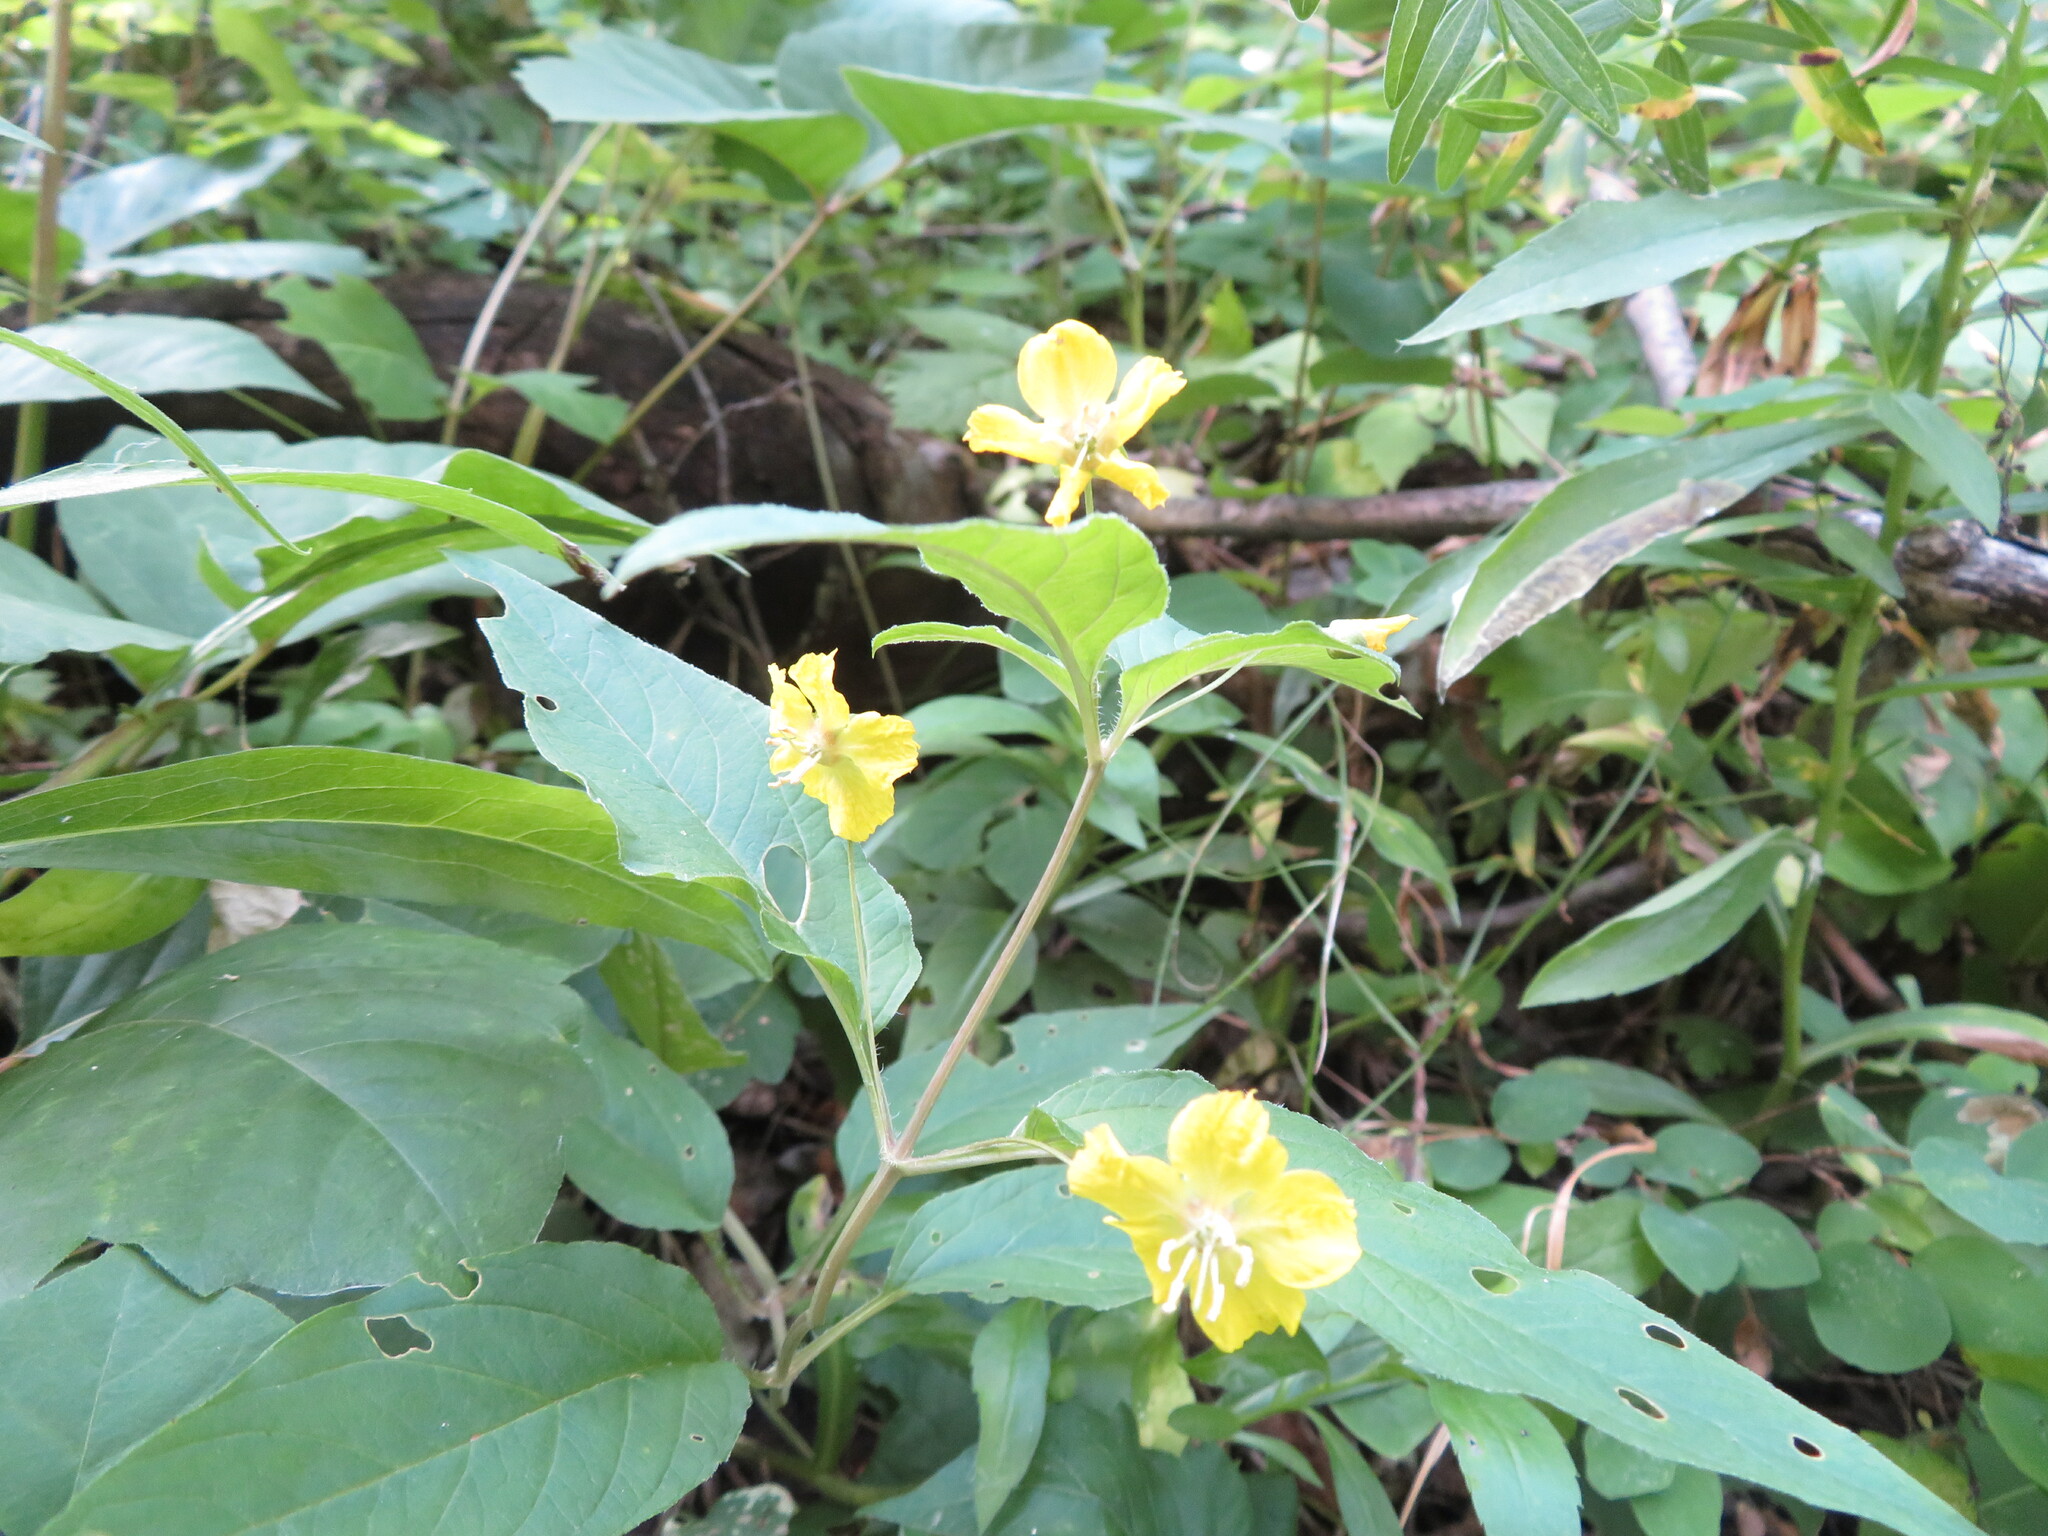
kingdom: Plantae
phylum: Tracheophyta
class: Magnoliopsida
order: Ericales
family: Primulaceae
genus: Lysimachia
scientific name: Lysimachia ciliata
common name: Fringed loosestrife
